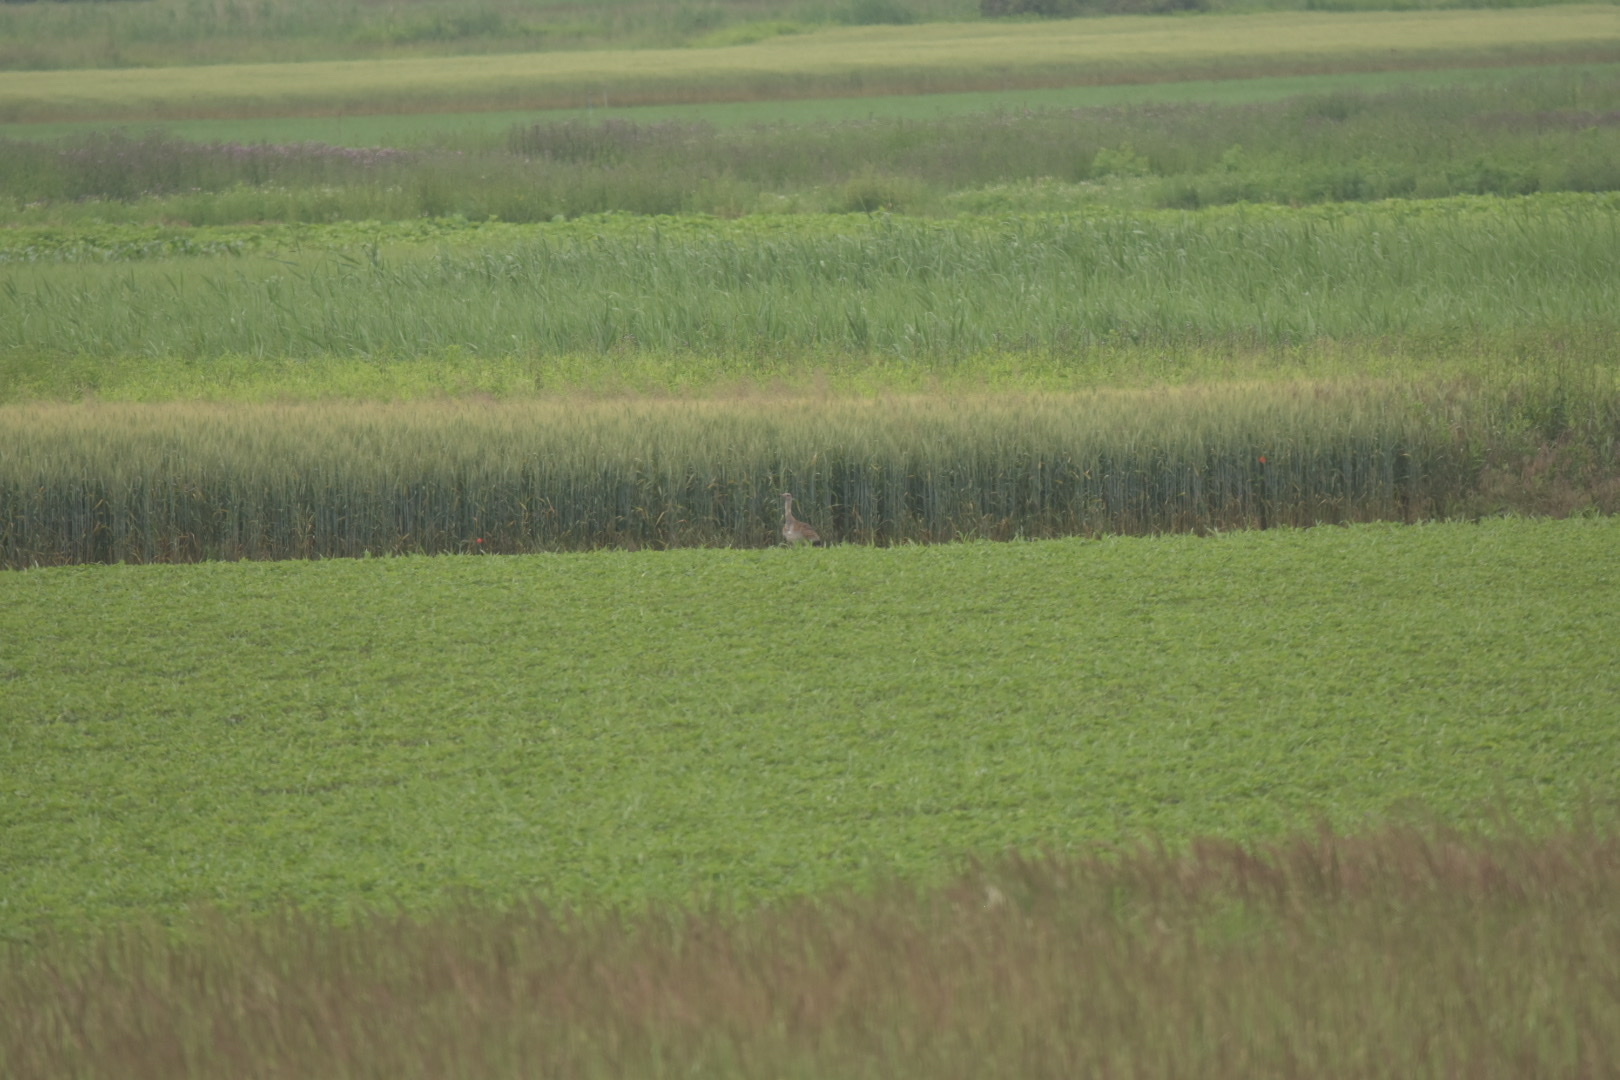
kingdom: Animalia
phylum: Chordata
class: Aves
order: Otidiformes
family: Otididae
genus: Otis
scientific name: Otis tarda
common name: Great bustard
